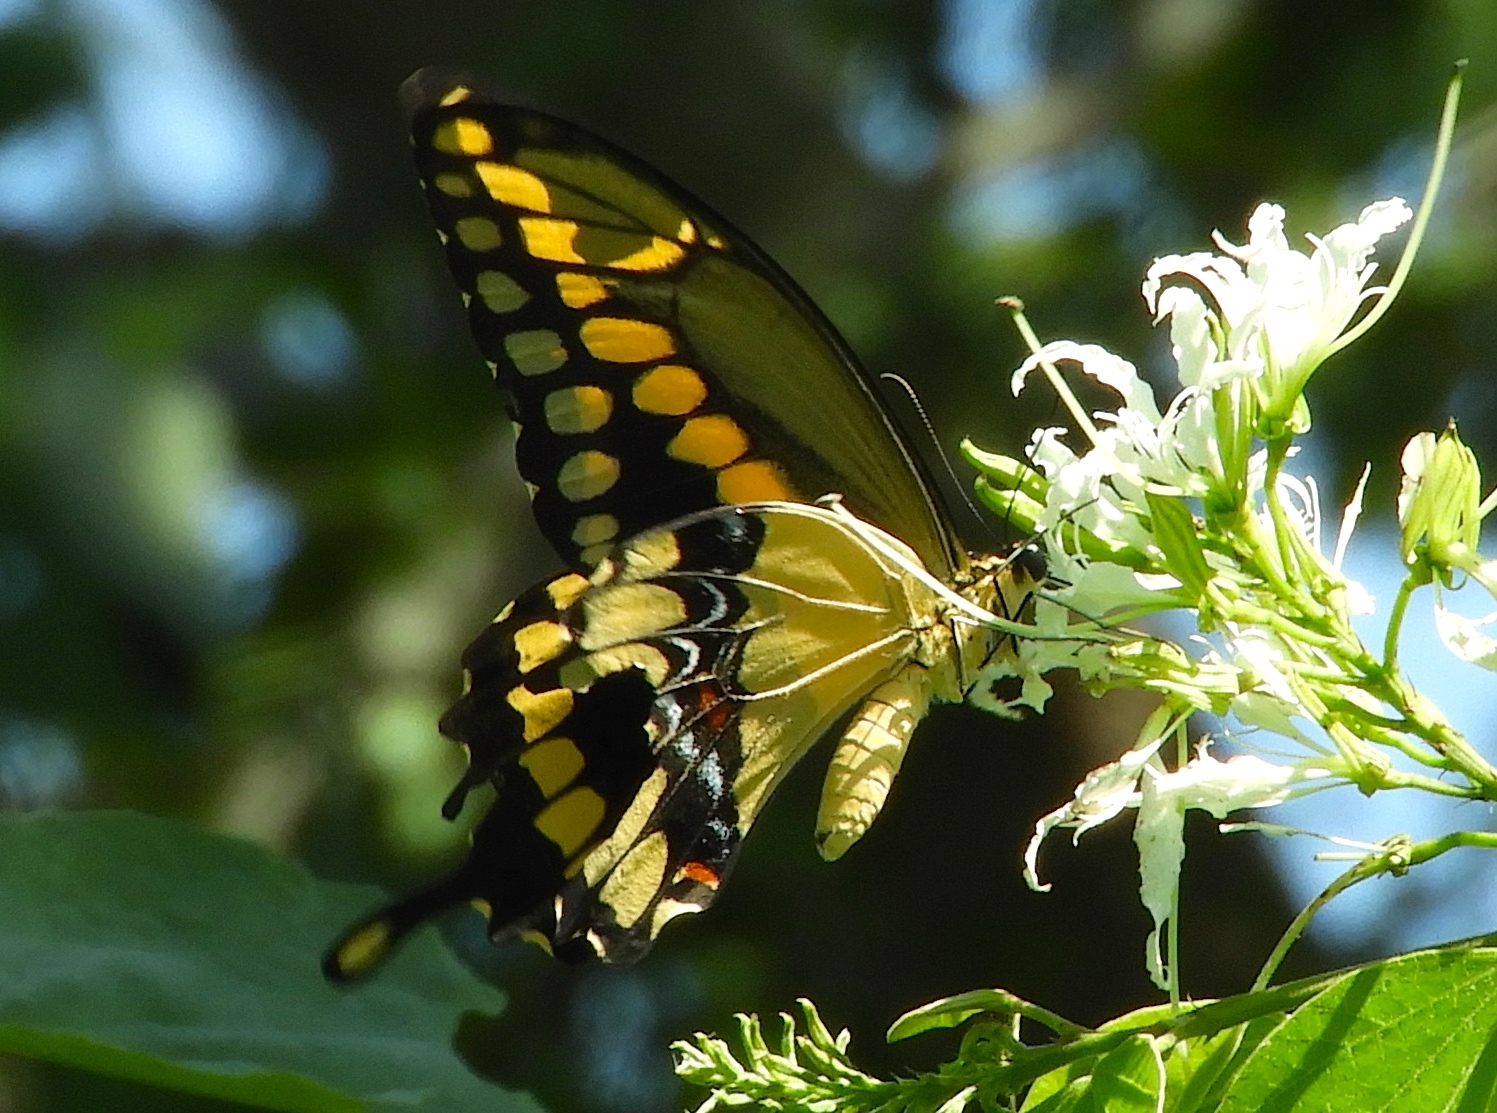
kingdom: Animalia
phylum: Arthropoda
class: Insecta
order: Lepidoptera
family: Papilionidae
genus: Papilio
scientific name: Papilio rumiko
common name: Western giant swallowtail
